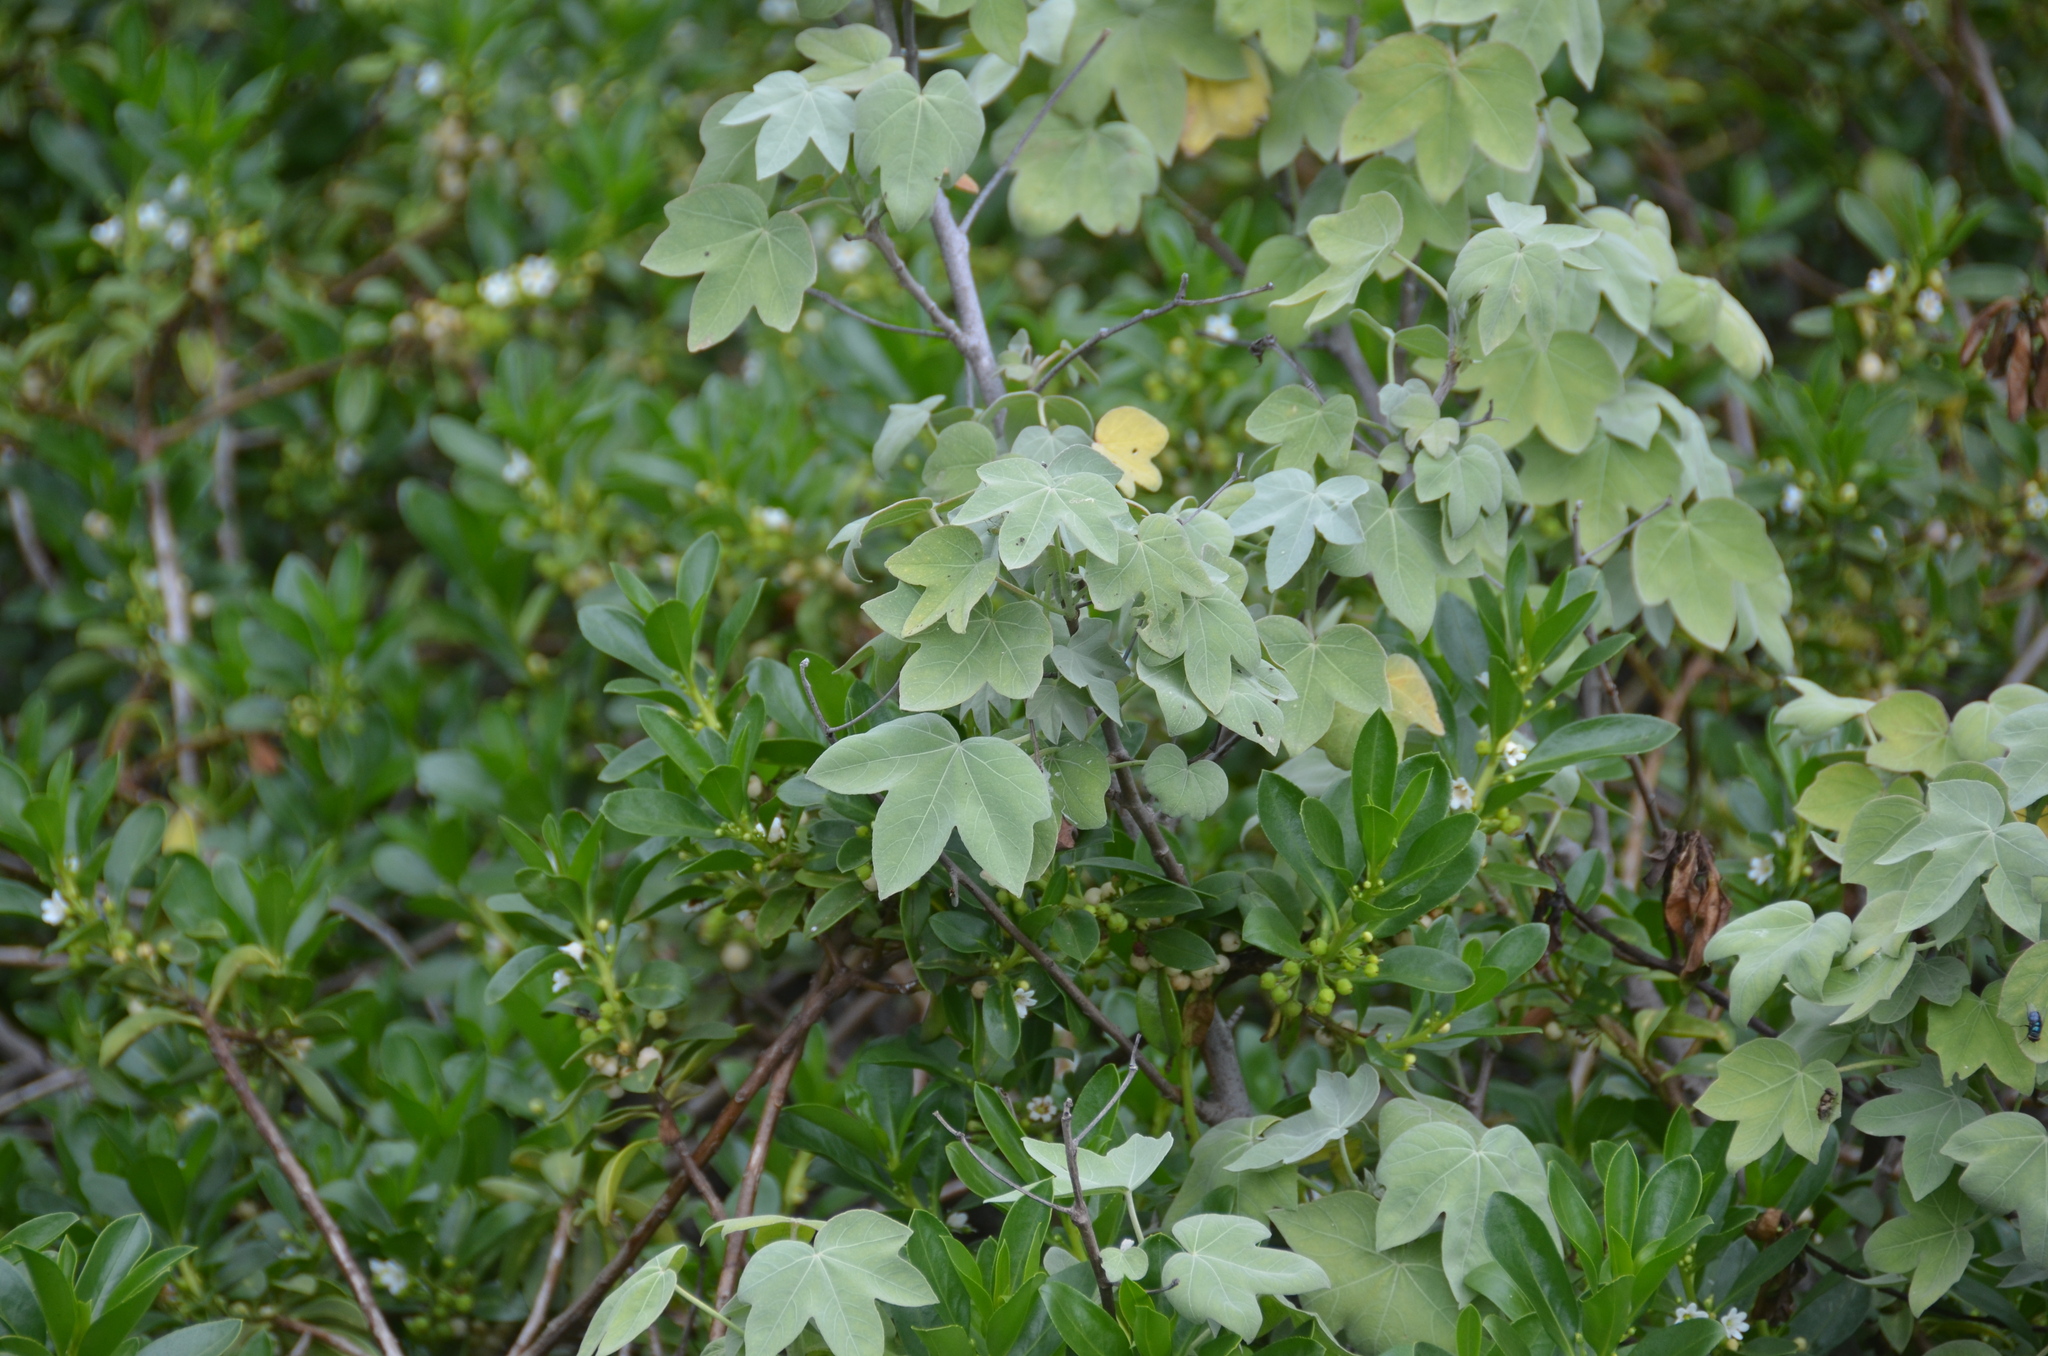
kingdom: Plantae
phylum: Tracheophyta
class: Magnoliopsida
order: Malvales
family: Malvaceae
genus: Gossypium
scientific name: Gossypium tomentosum
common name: Hawaiian cotton
